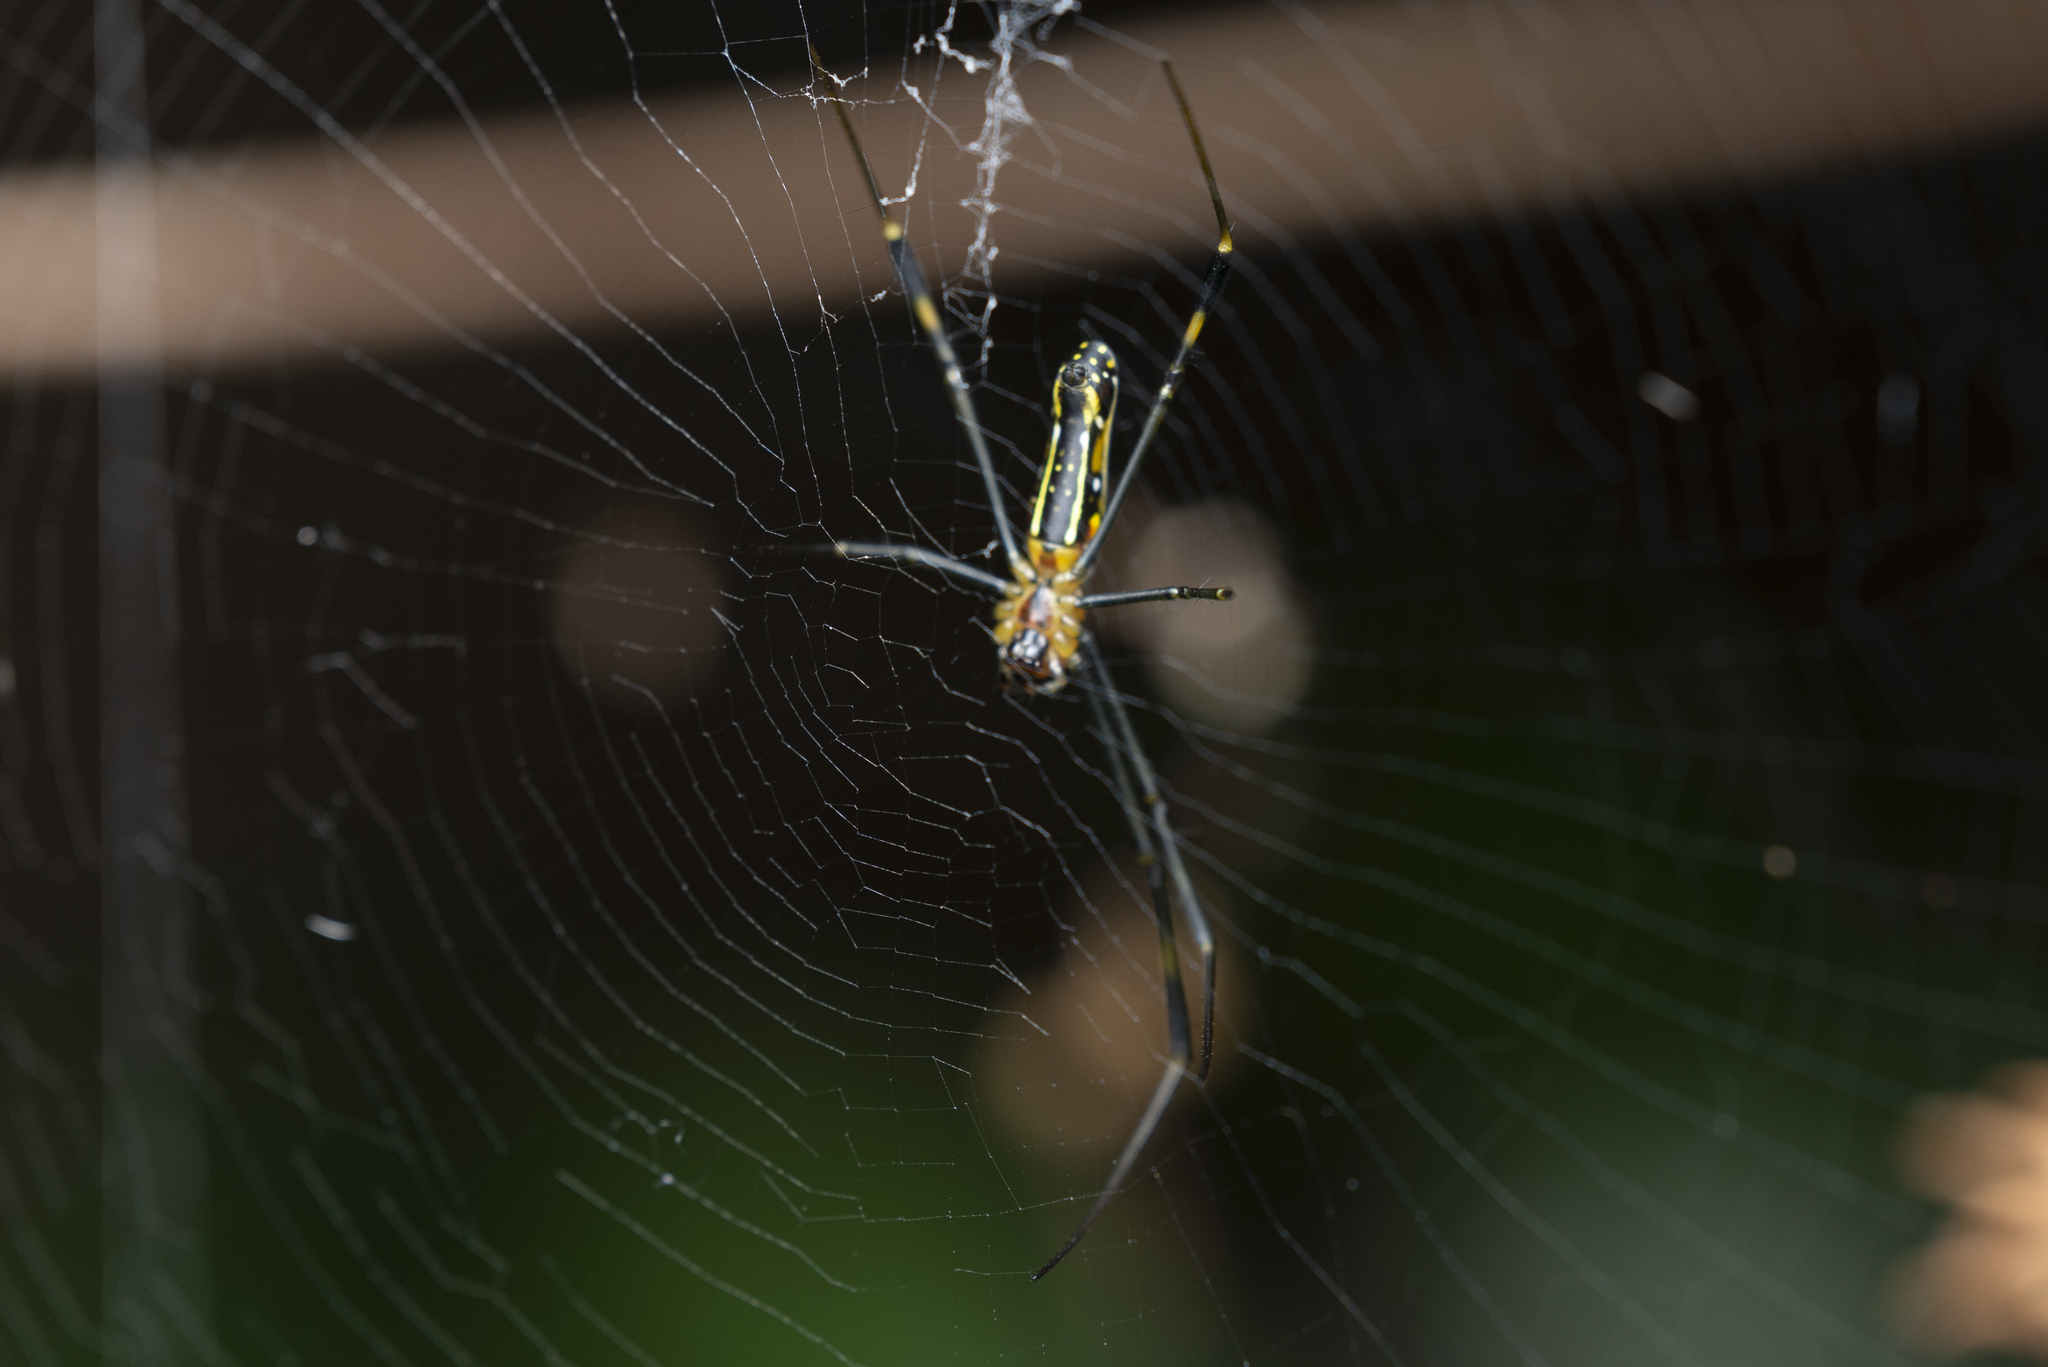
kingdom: Animalia
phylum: Arthropoda
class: Arachnida
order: Araneae
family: Araneidae
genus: Nephila
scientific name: Nephila pilipes
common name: Giant golden orb weaver
